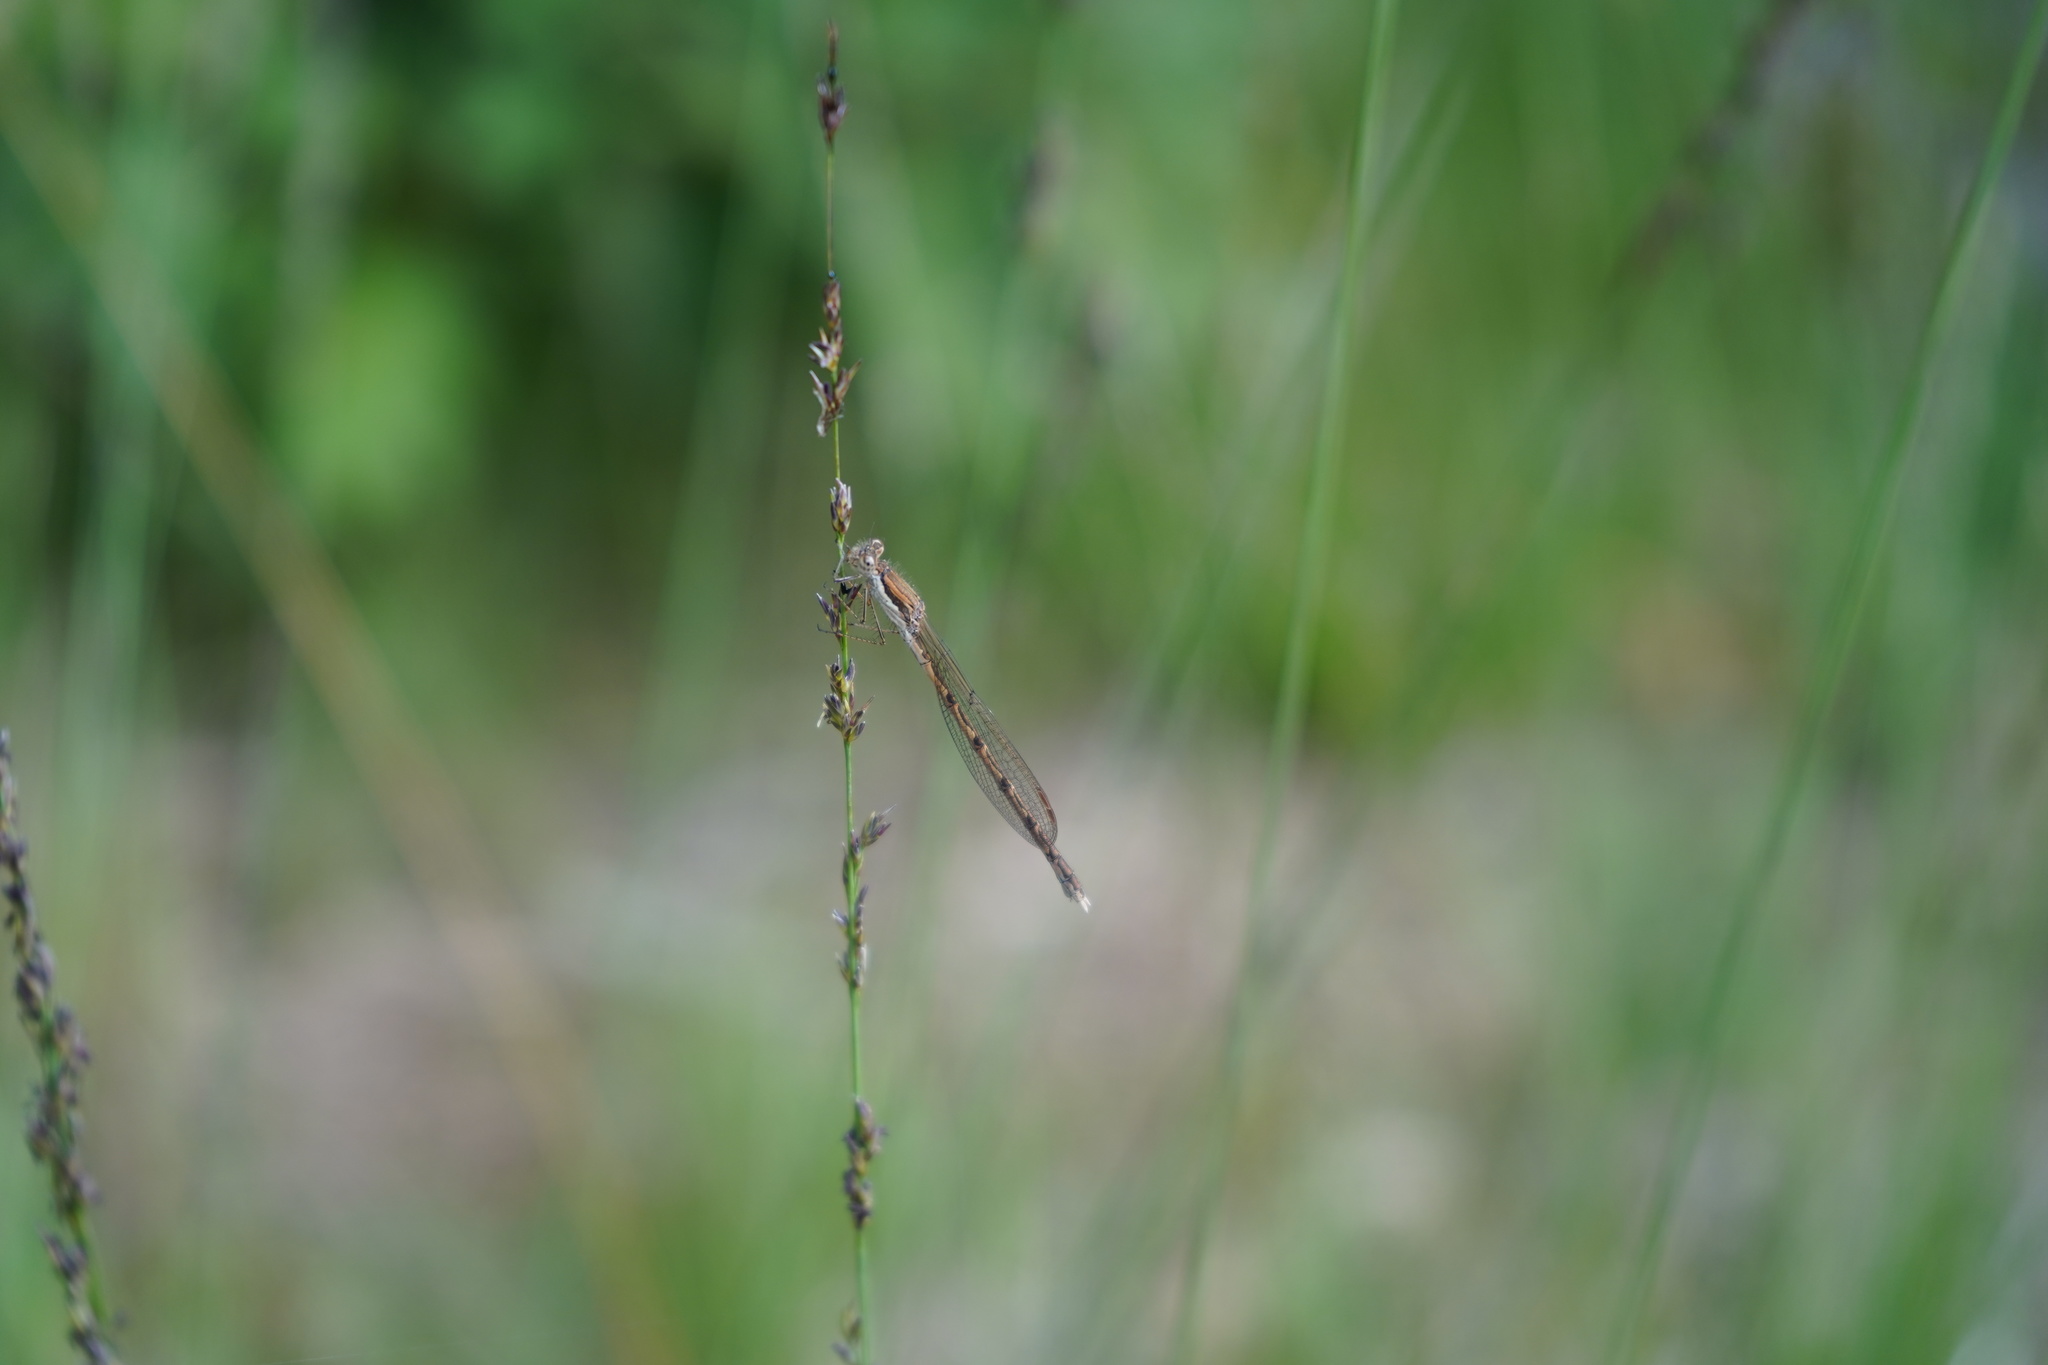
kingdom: Animalia
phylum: Arthropoda
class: Insecta
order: Odonata
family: Lestidae
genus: Sympecma
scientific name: Sympecma fusca
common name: Common winter damsel
